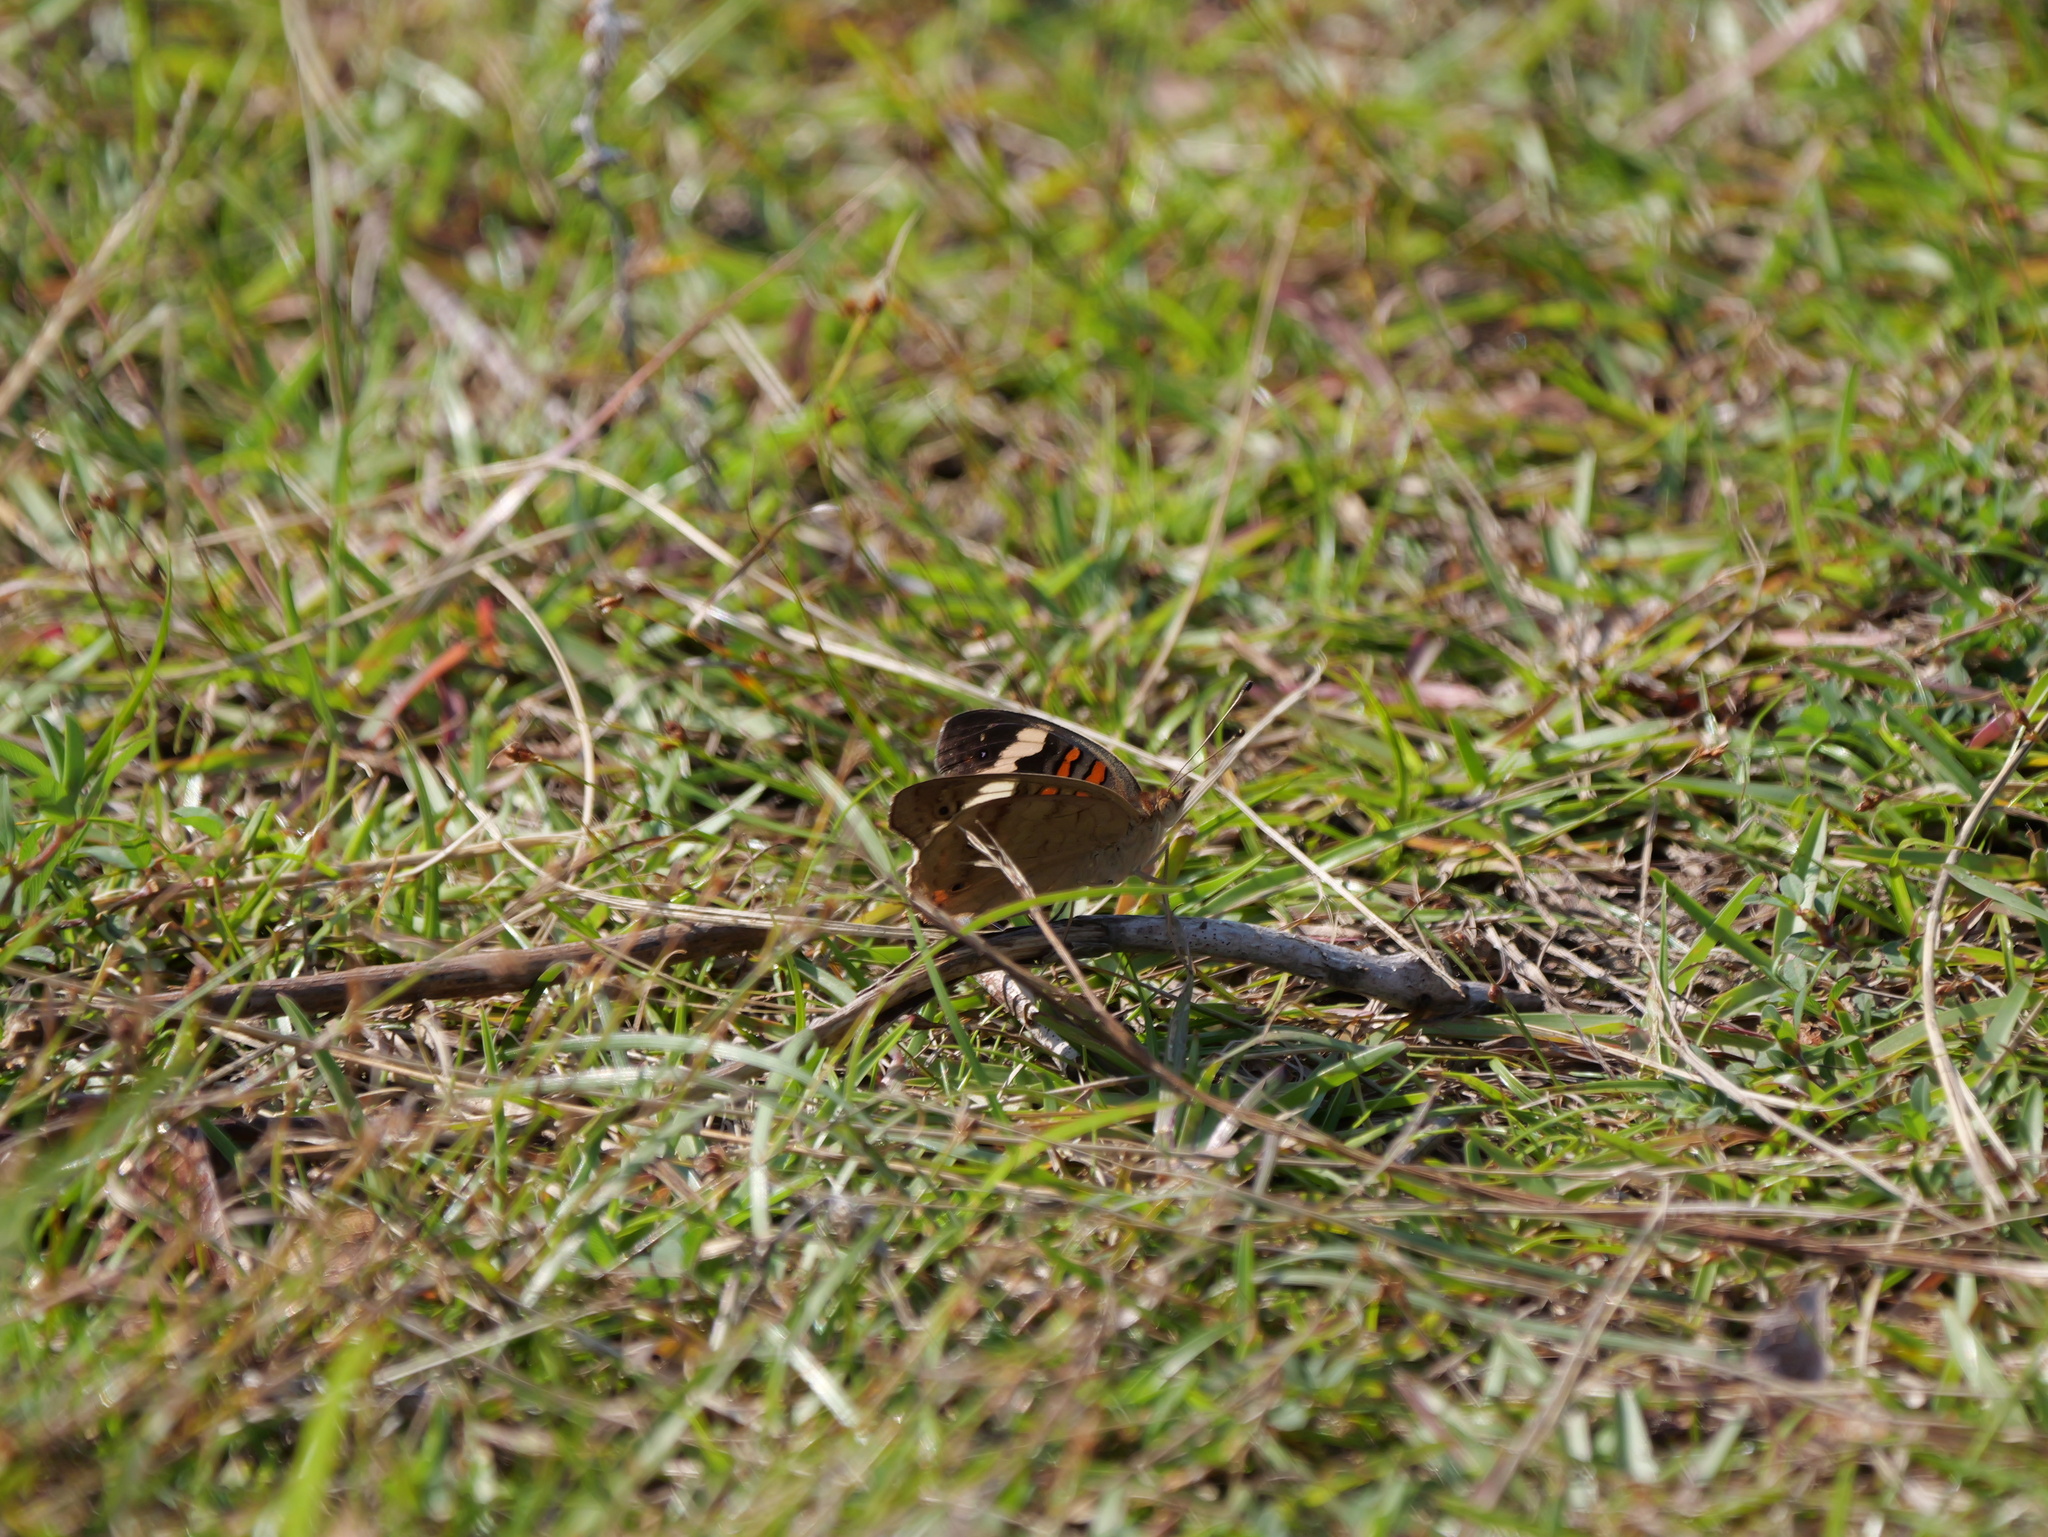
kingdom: Animalia
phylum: Arthropoda
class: Insecta
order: Lepidoptera
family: Nymphalidae
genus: Junonia
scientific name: Junonia coenia
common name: Common buckeye
